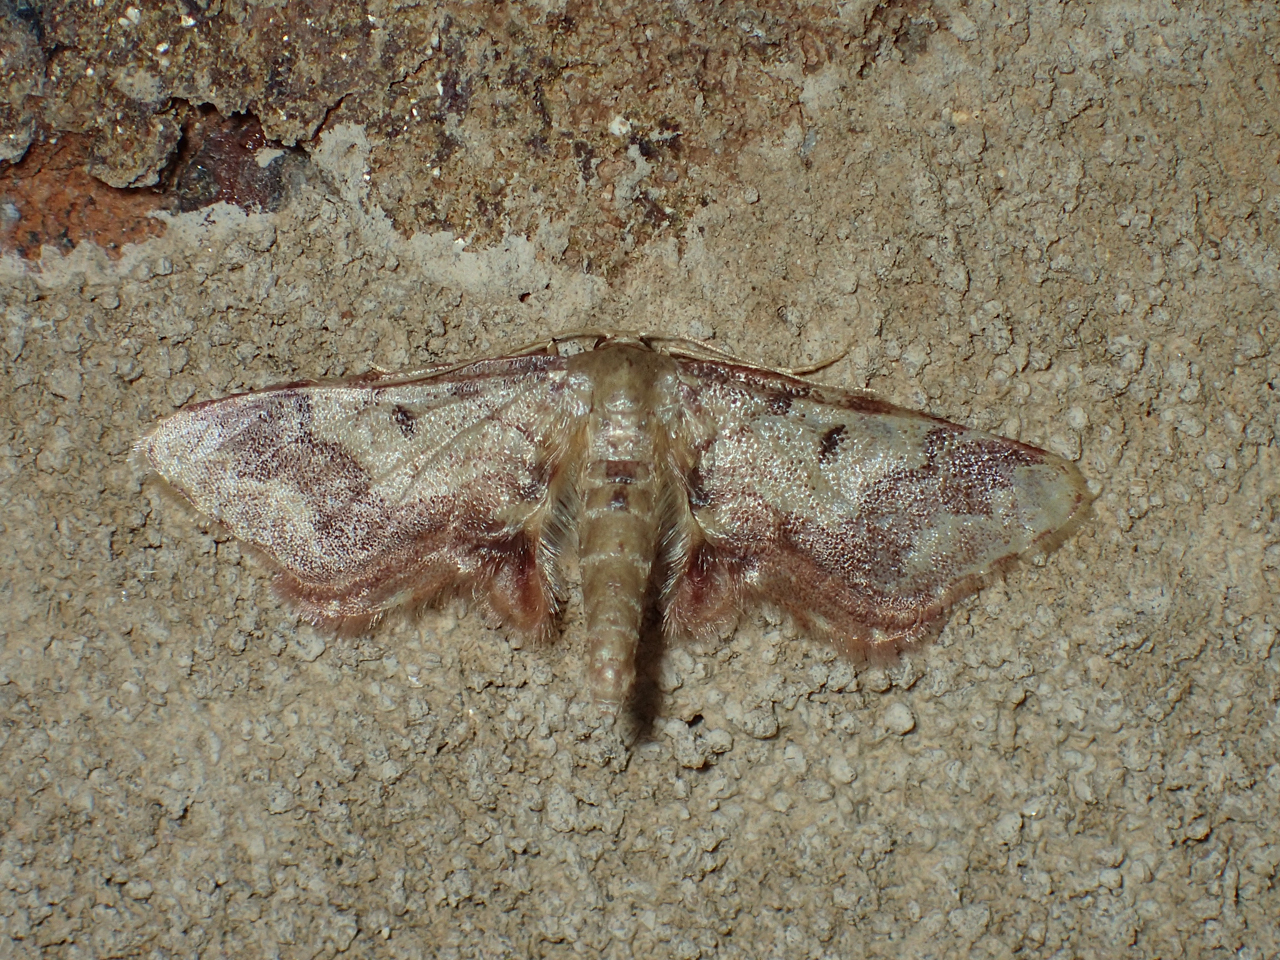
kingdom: Animalia
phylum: Arthropoda
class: Insecta
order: Lepidoptera
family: Geometridae
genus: Idaea
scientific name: Idaea furciferata
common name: Notch-winged wave
